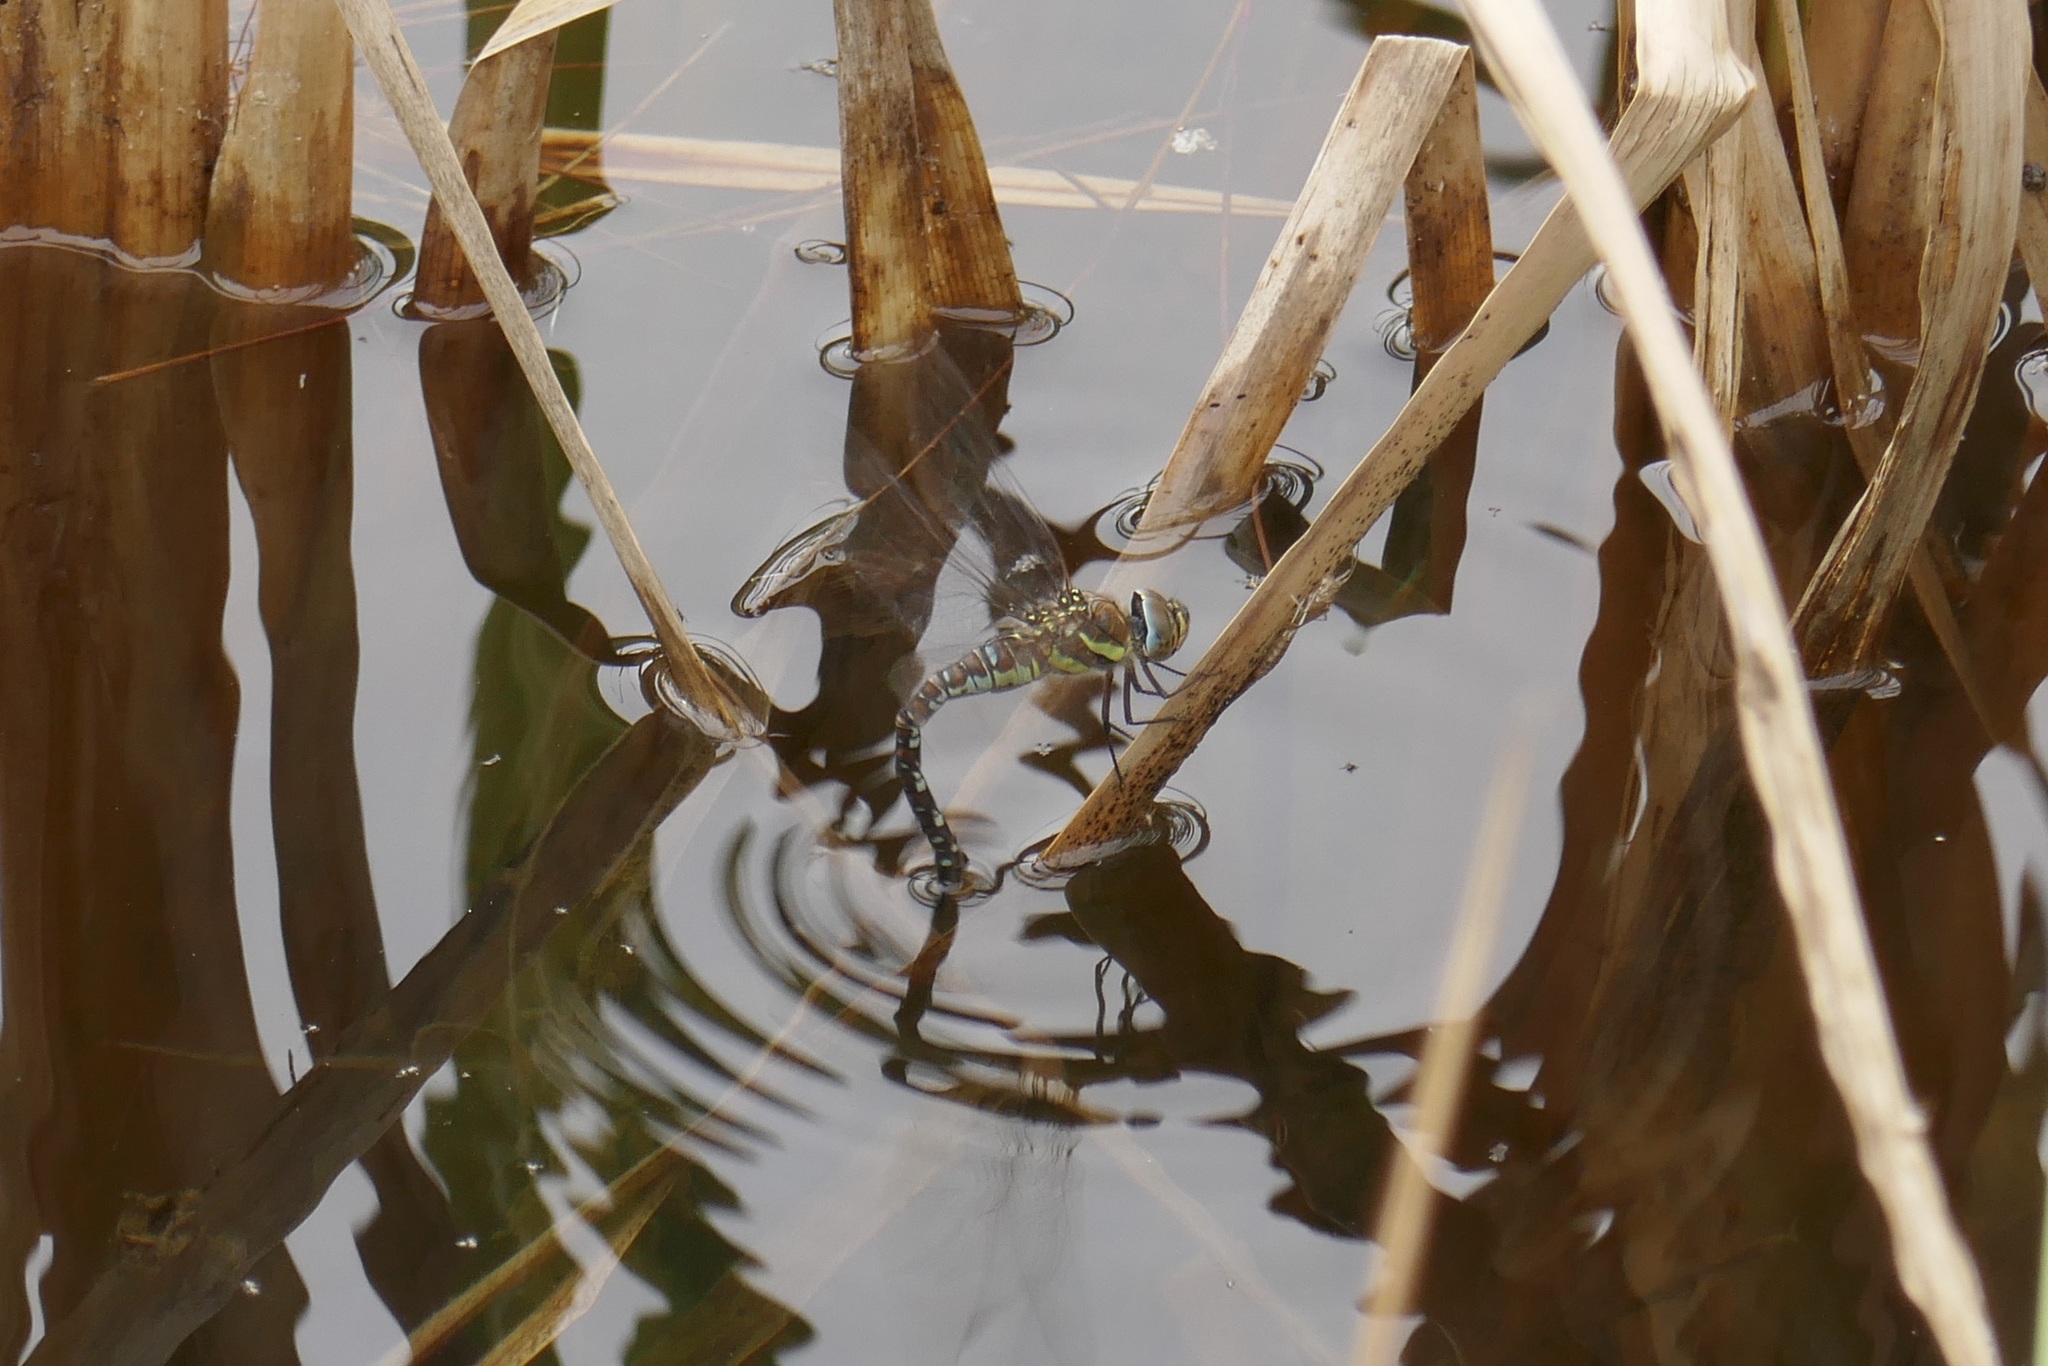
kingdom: Animalia
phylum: Arthropoda
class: Insecta
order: Odonata
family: Aeshnidae
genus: Aeshna
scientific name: Aeshna mixta
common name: Migrant hawker
